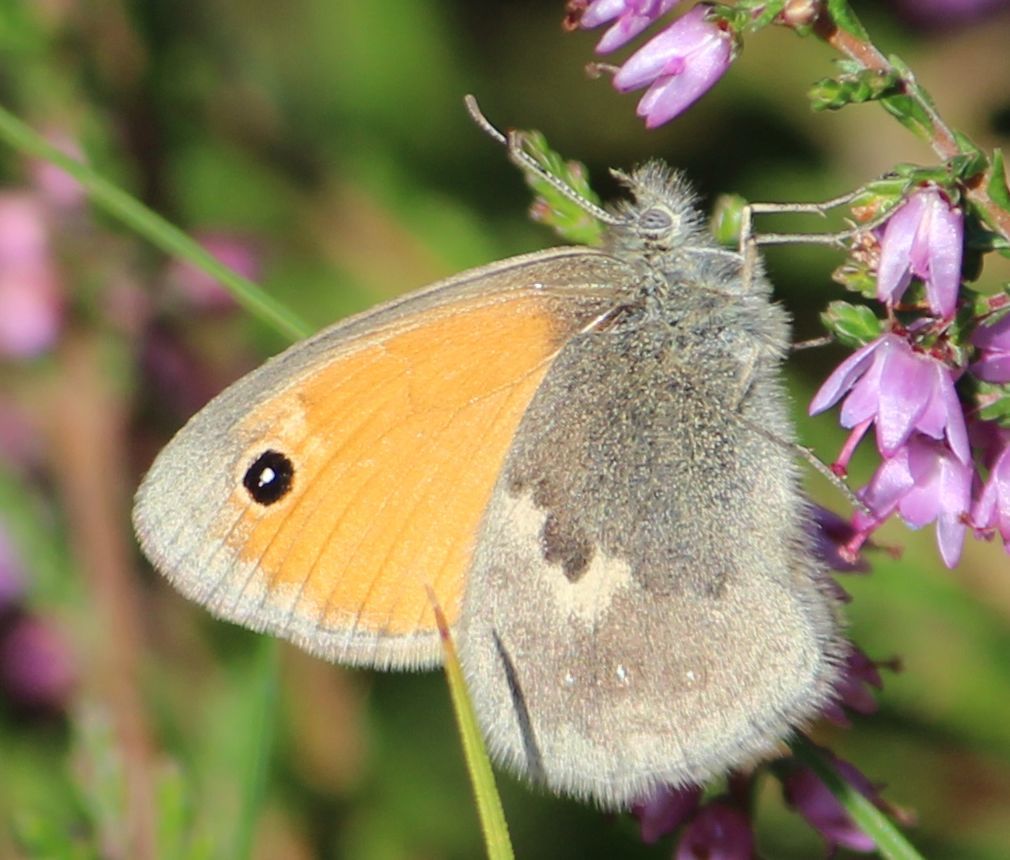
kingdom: Animalia
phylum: Arthropoda
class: Insecta
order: Lepidoptera
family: Nymphalidae
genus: Coenonympha
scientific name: Coenonympha pamphilus
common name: Small heath
